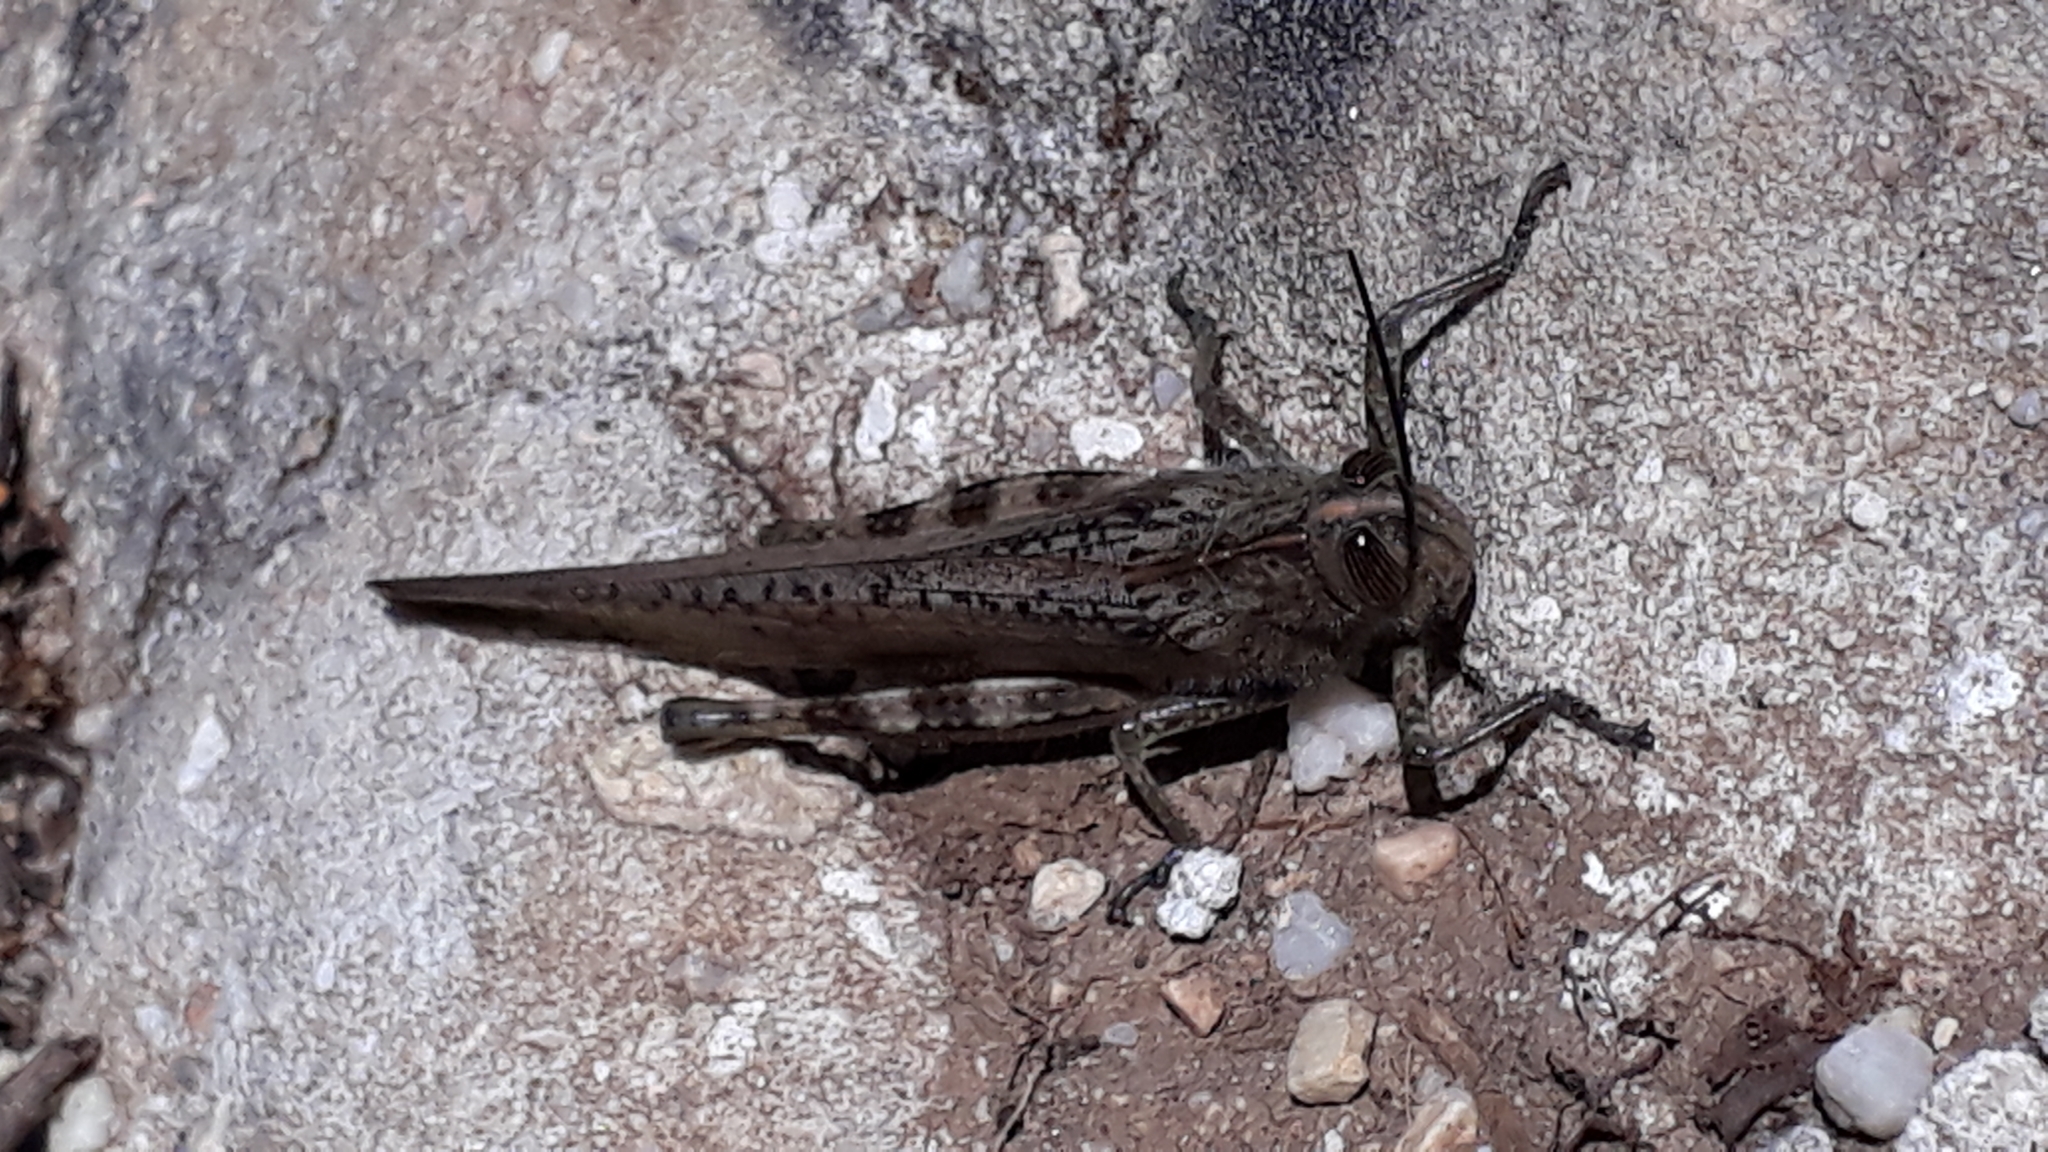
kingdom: Animalia
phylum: Arthropoda
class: Insecta
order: Orthoptera
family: Acrididae
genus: Anacridium
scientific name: Anacridium aegyptium
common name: Egyptian grasshopper
